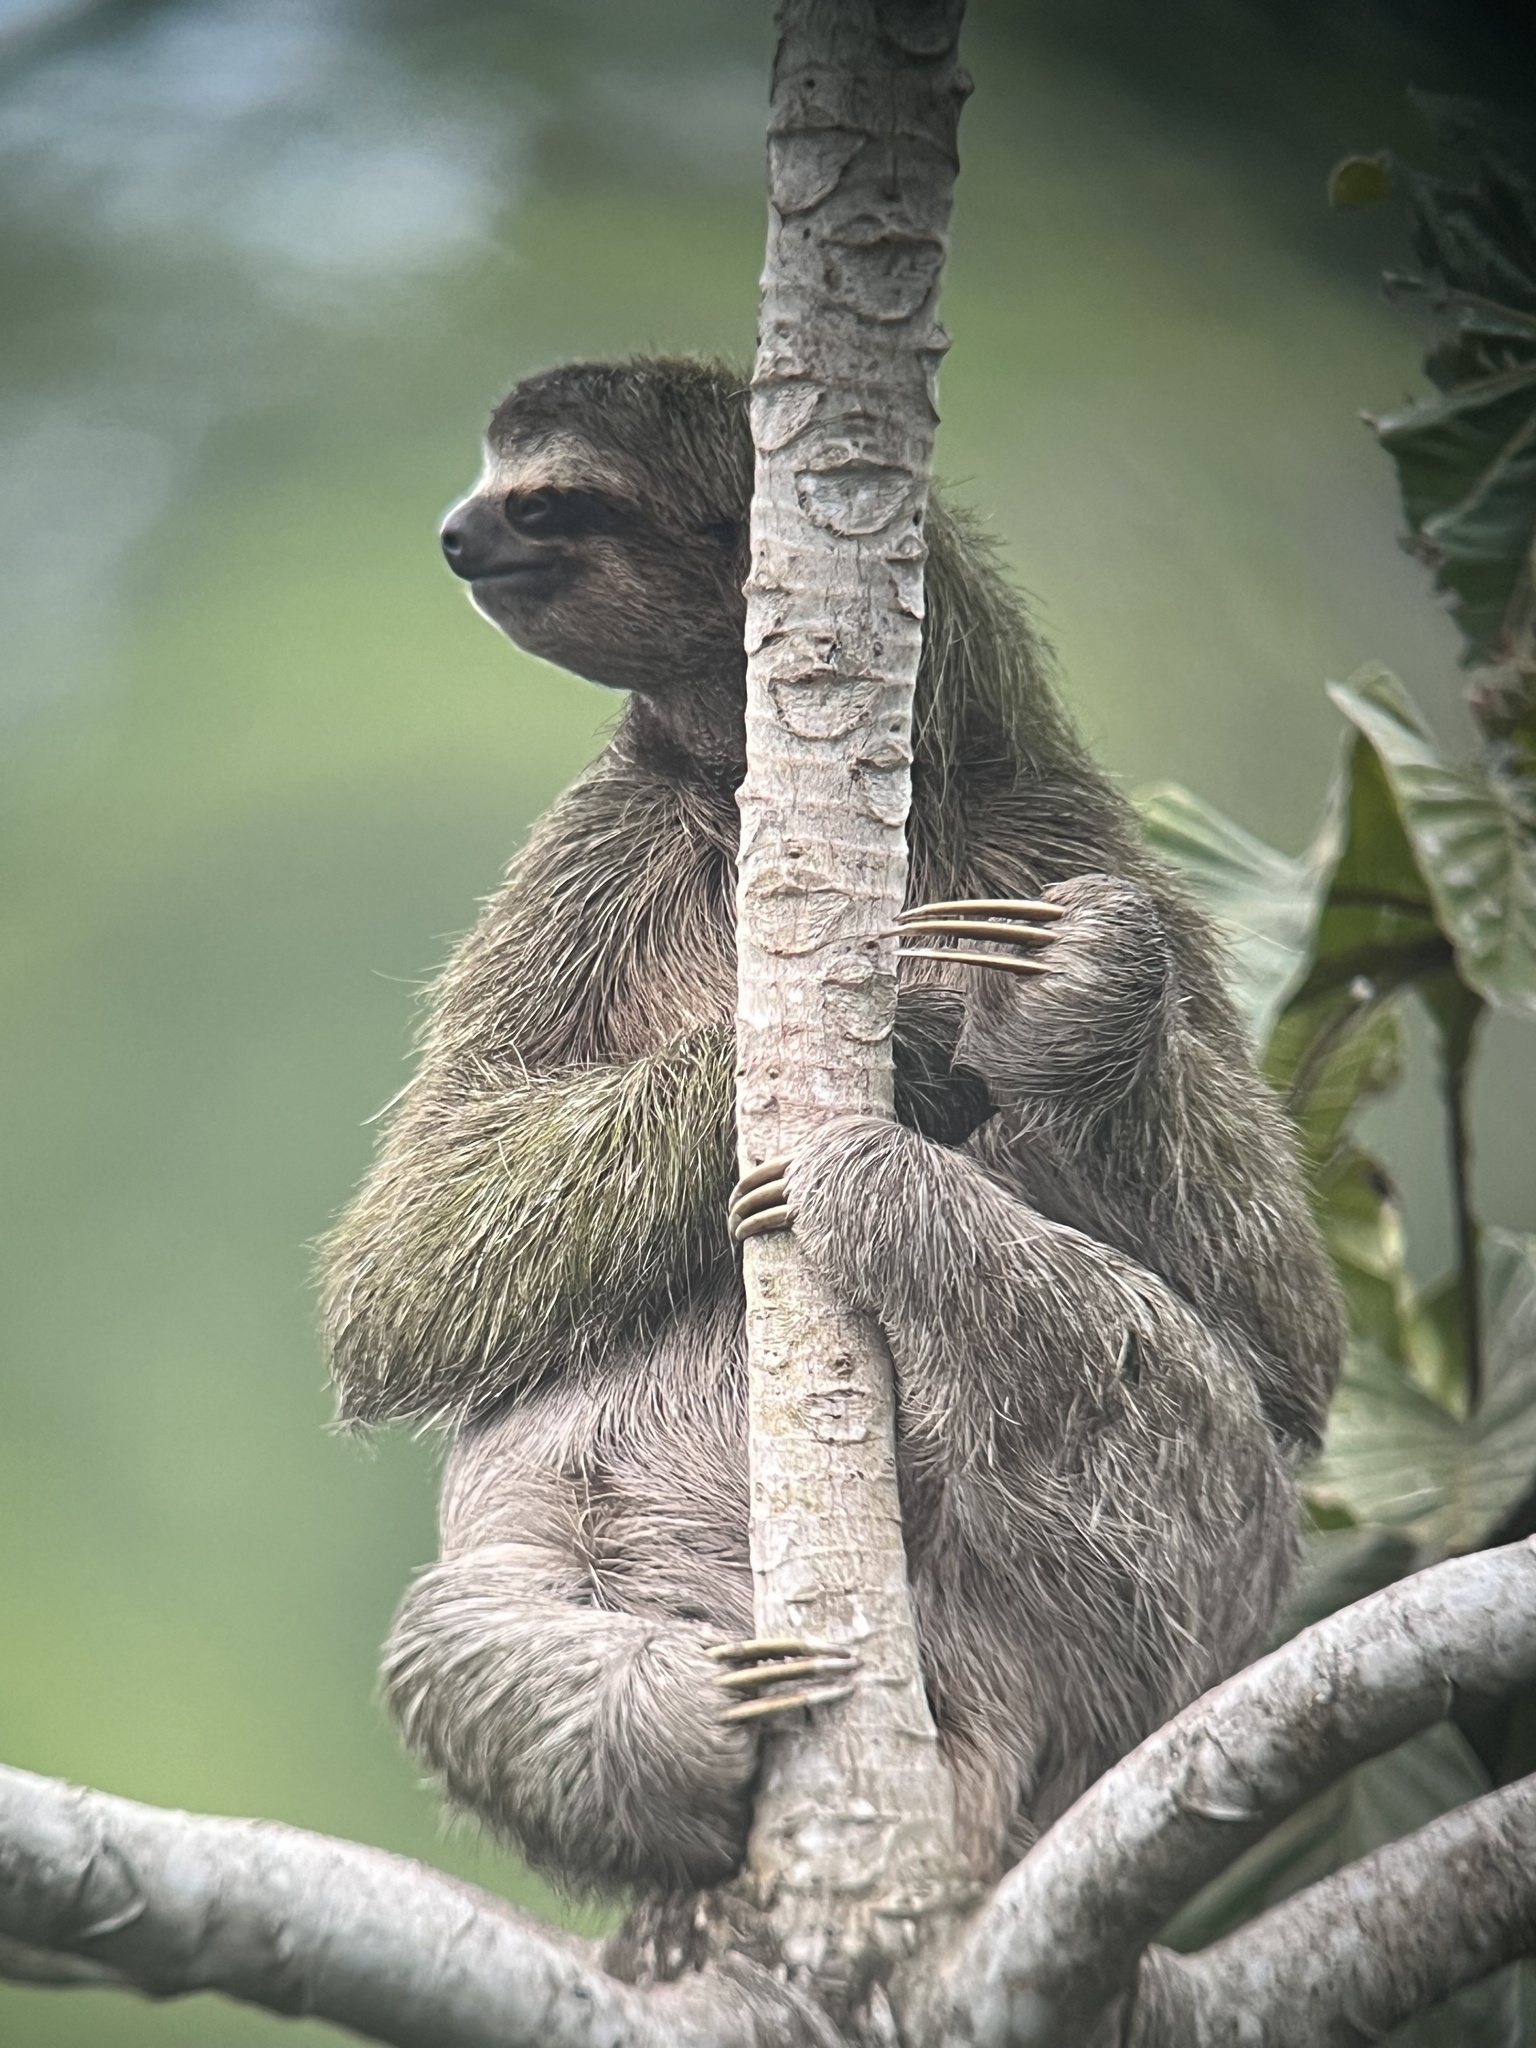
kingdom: Animalia
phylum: Chordata
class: Mammalia
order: Pilosa
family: Bradypodidae
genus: Bradypus
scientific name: Bradypus variegatus
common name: Brown-throated three-toed sloth
